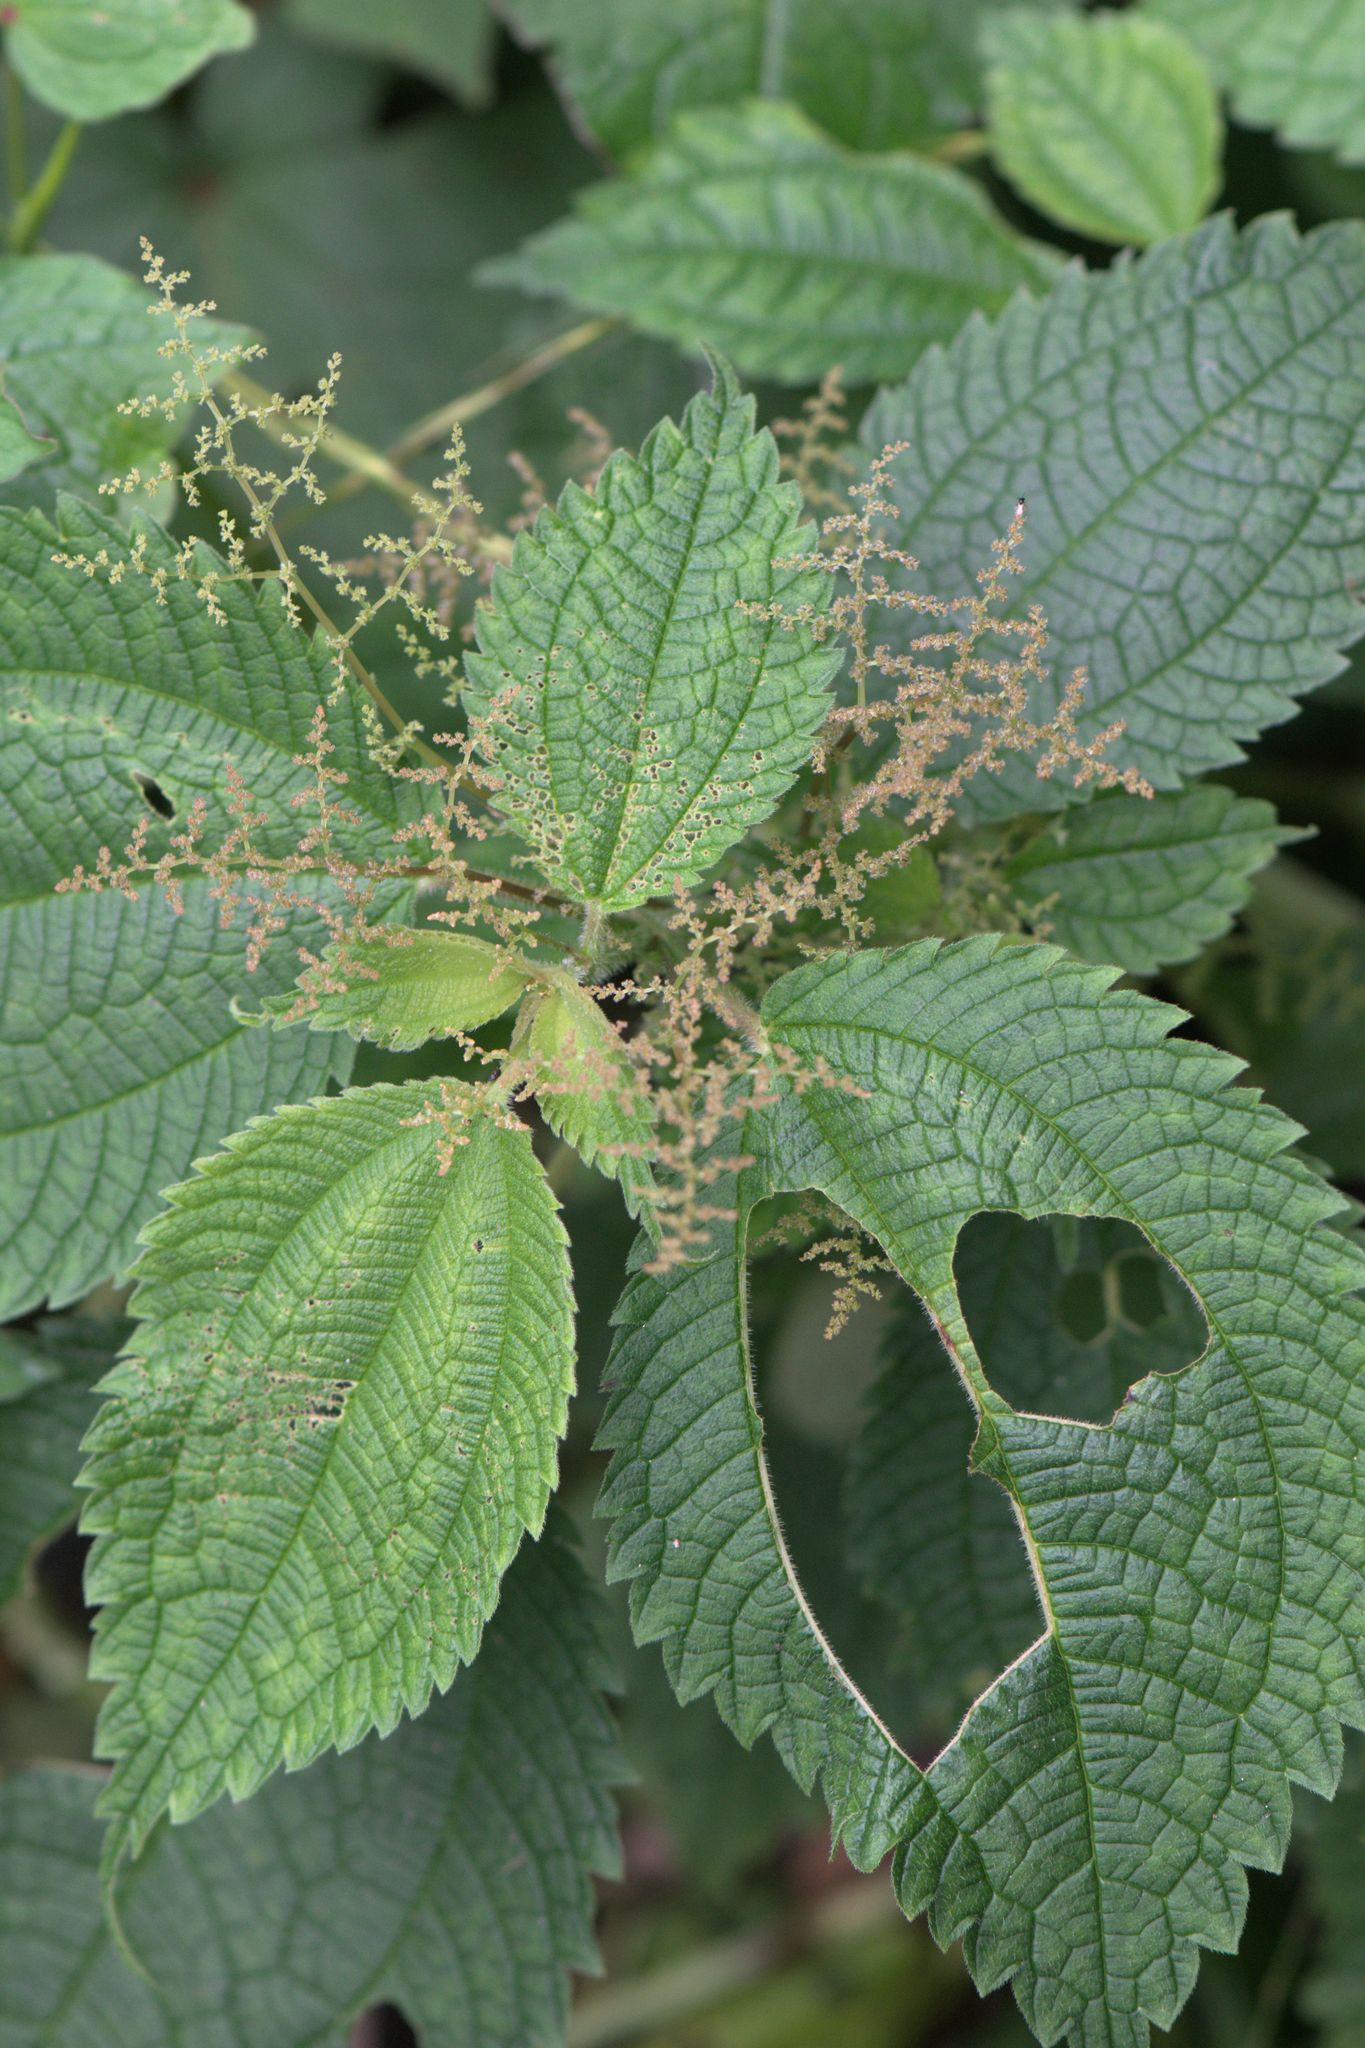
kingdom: Plantae
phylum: Tracheophyta
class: Magnoliopsida
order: Rosales
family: Urticaceae
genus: Pilea
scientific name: Pilea umbrosa
